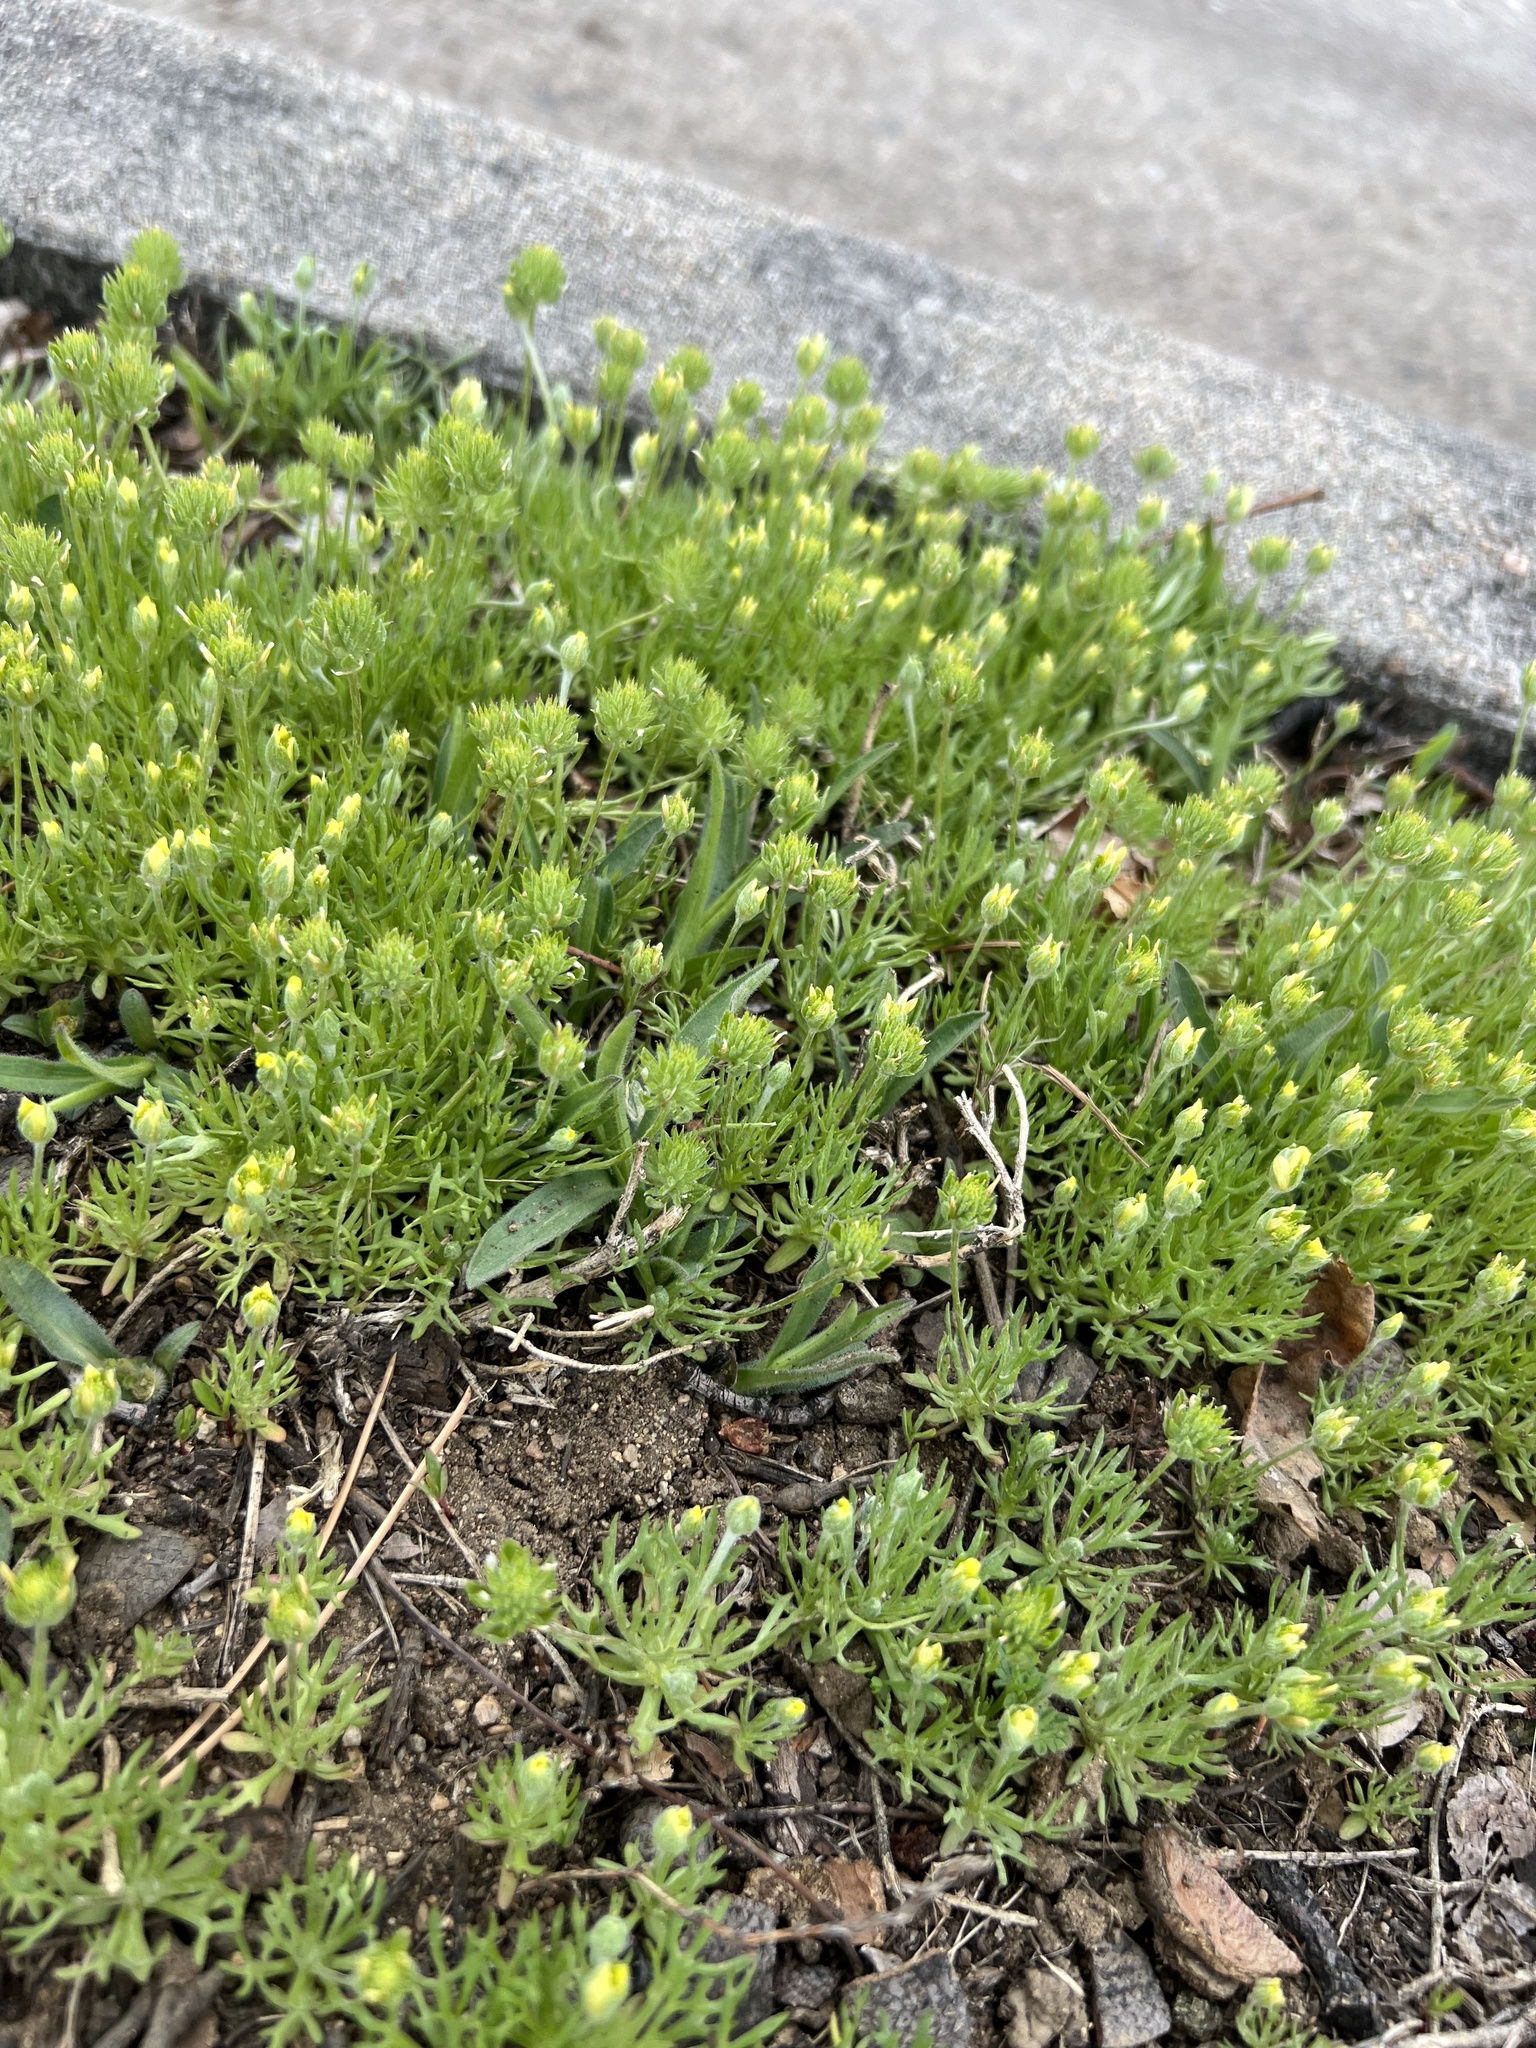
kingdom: Plantae
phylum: Tracheophyta
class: Magnoliopsida
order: Ranunculales
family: Ranunculaceae
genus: Ceratocephala
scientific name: Ceratocephala orthoceras
